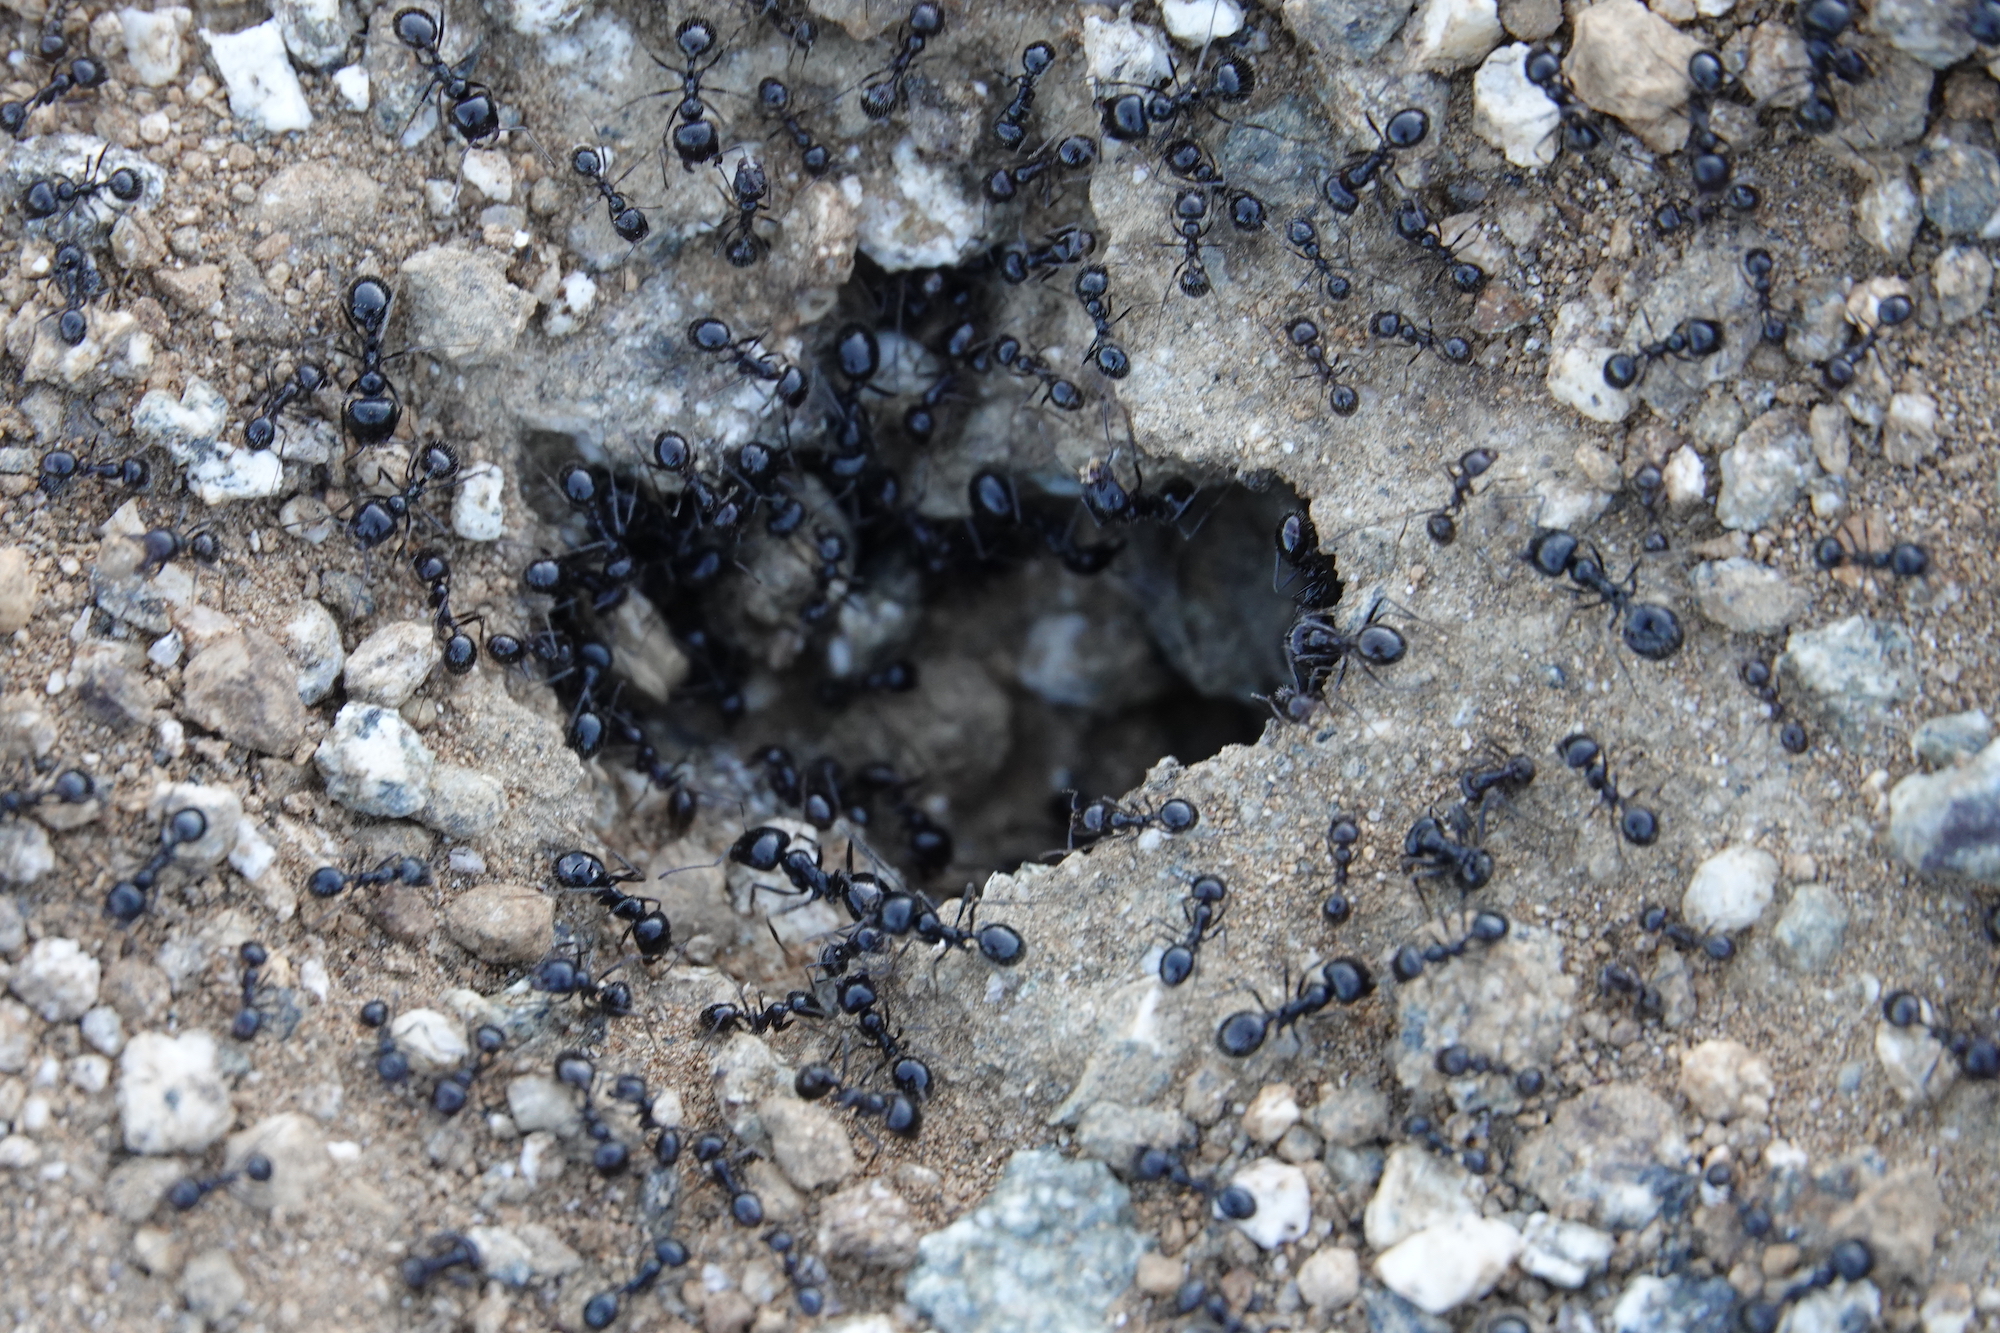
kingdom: Animalia
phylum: Arthropoda
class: Insecta
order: Hymenoptera
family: Formicidae
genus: Messor
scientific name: Messor pergandei
